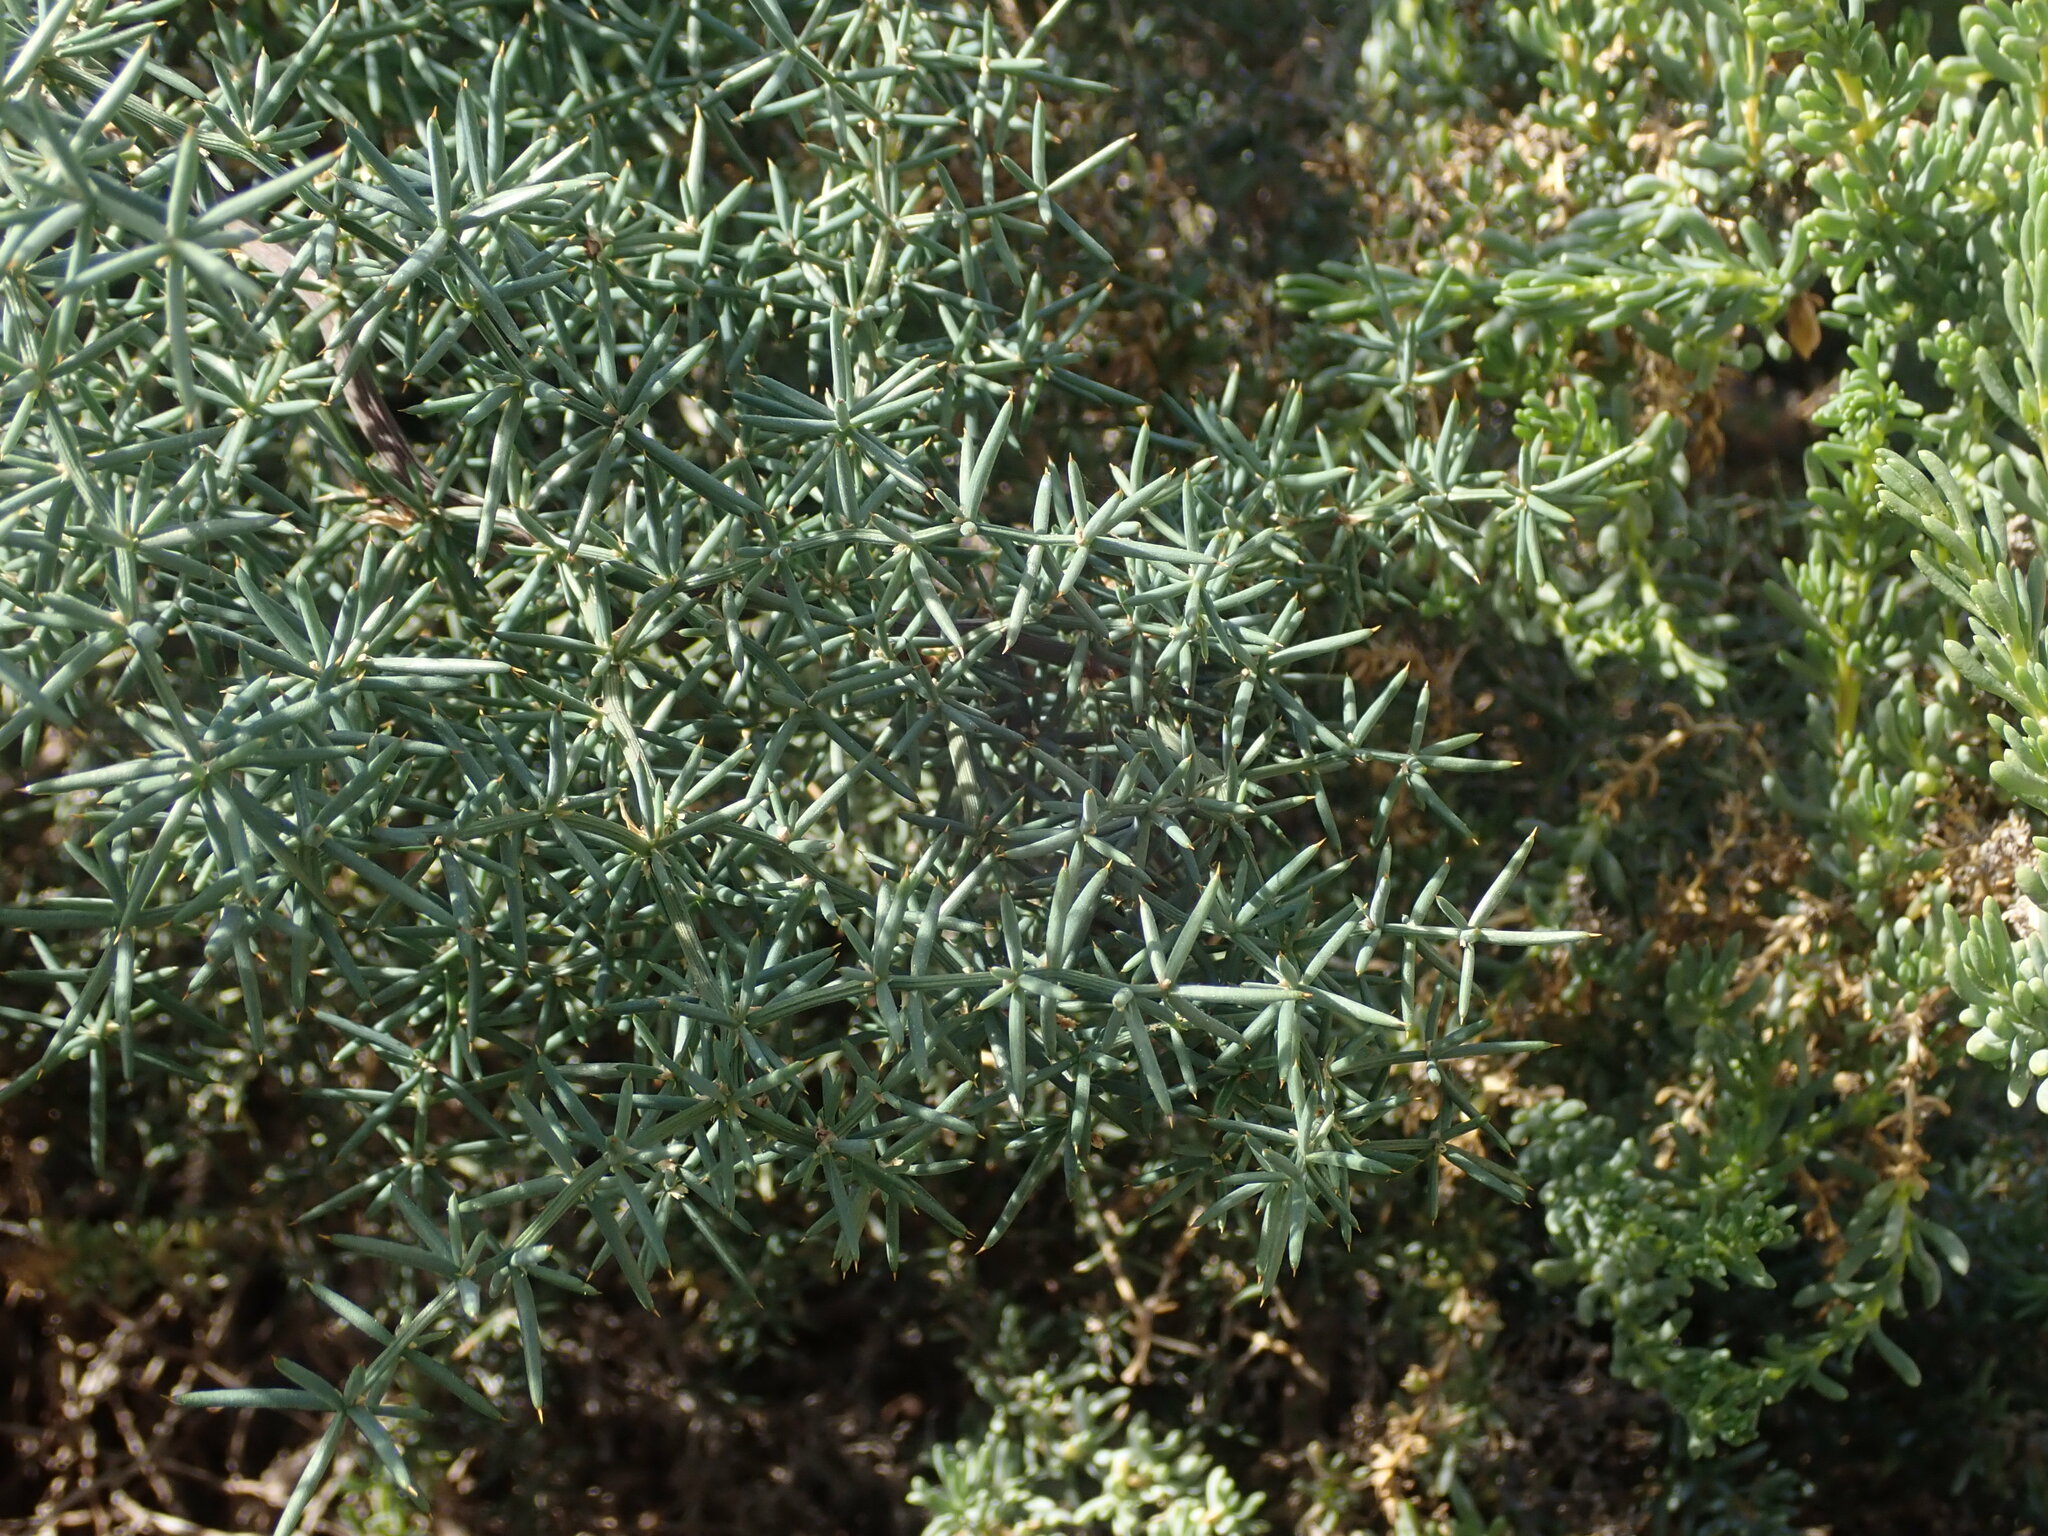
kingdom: Plantae
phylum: Tracheophyta
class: Liliopsida
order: Asparagales
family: Asparagaceae
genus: Asparagus
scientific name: Asparagus aphyllus
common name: Mediterranean asparagus
